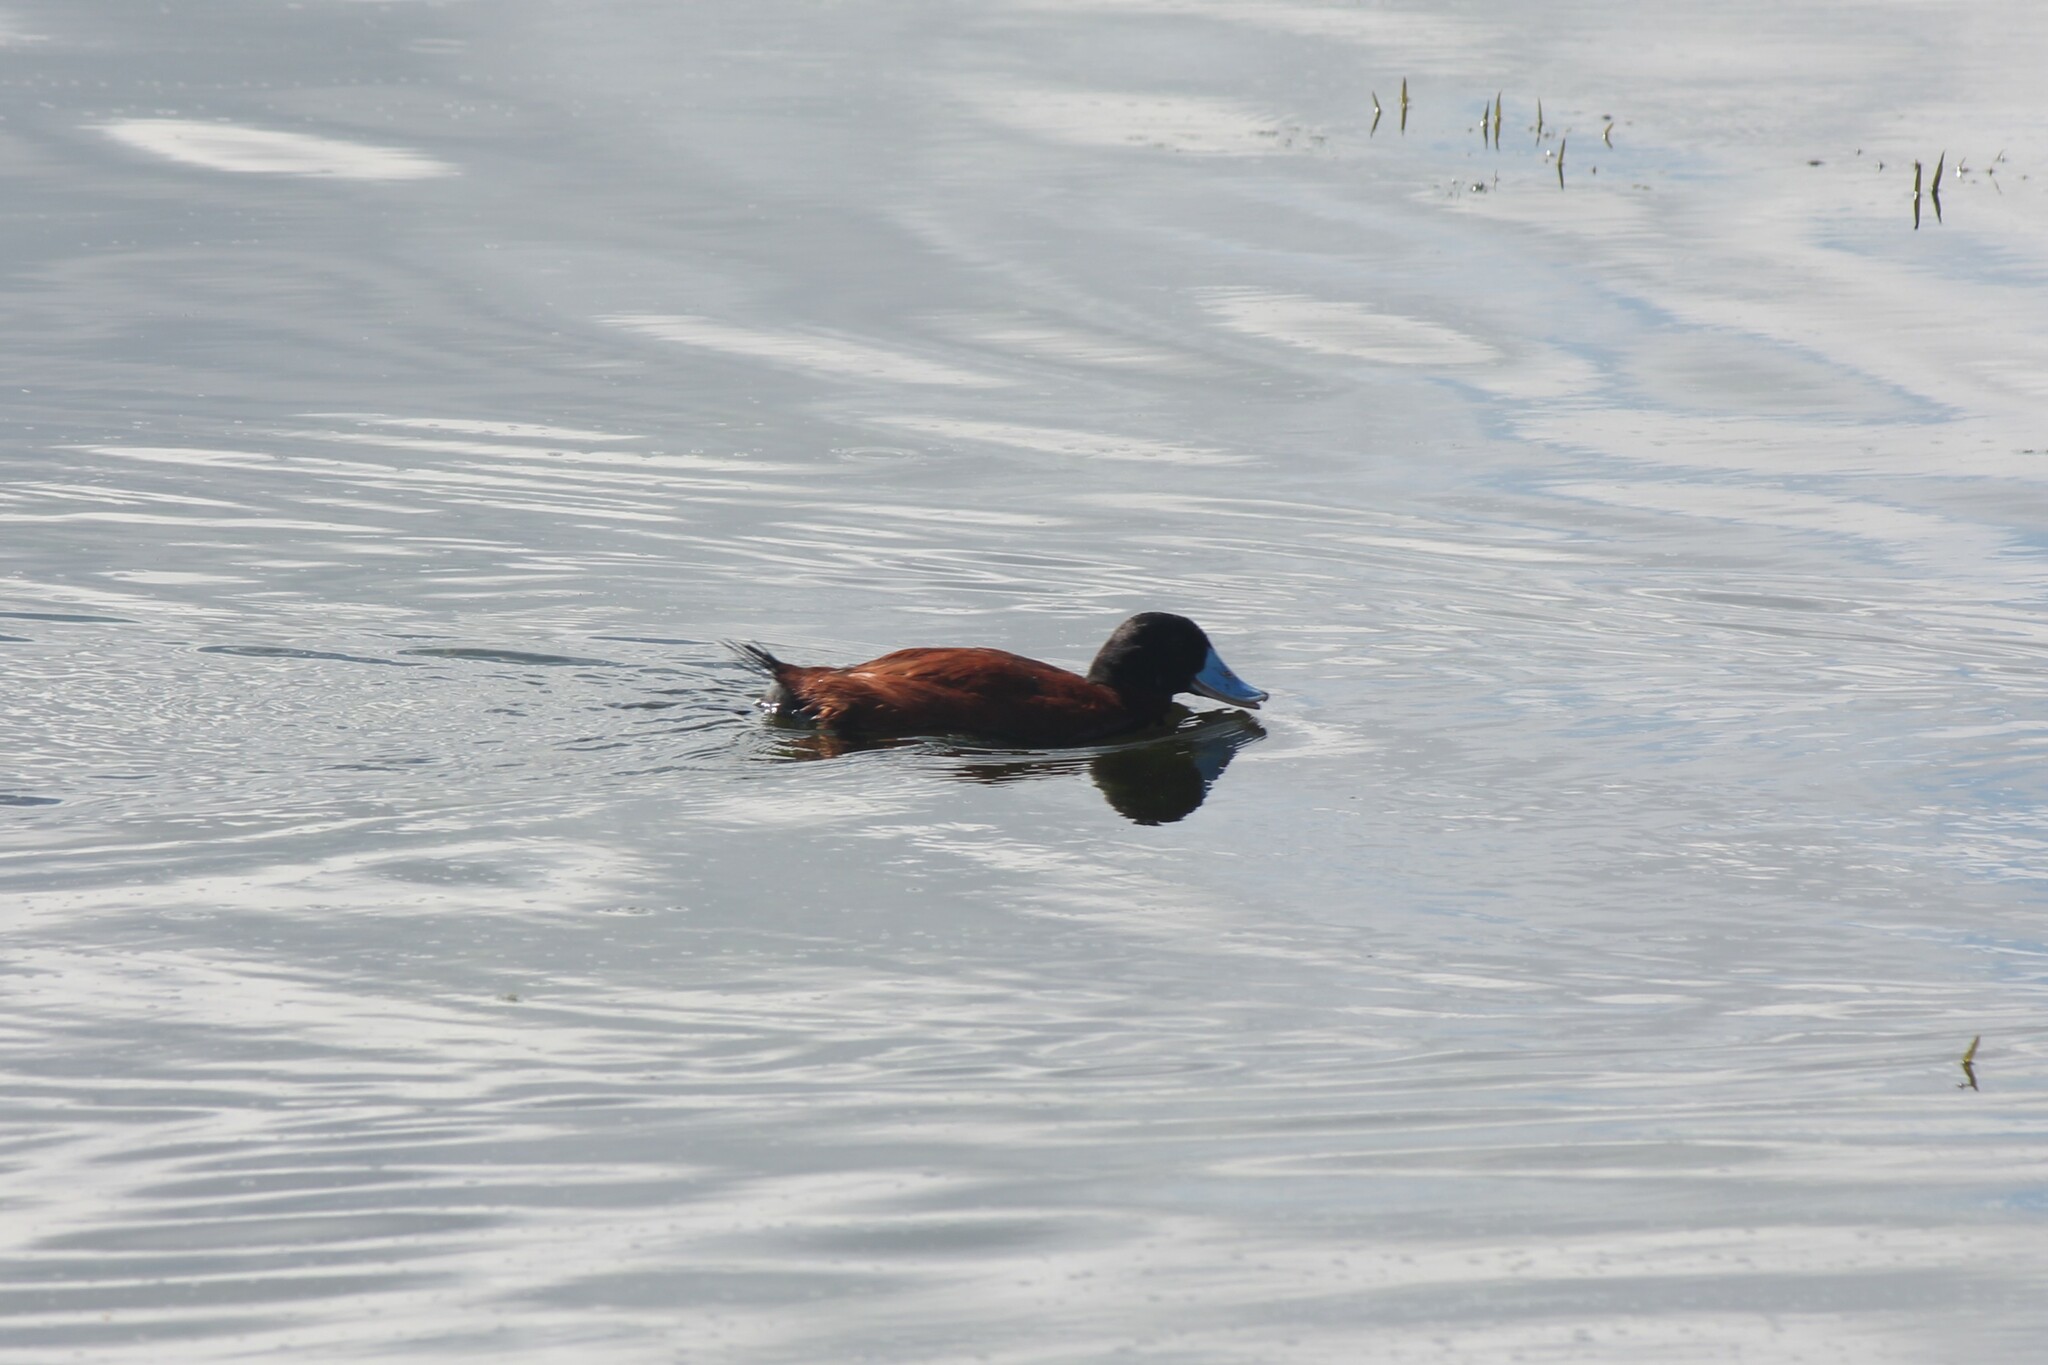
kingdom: Animalia
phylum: Chordata
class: Aves
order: Anseriformes
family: Anatidae
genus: Oxyura
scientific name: Oxyura ferruginea
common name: Andean duck
